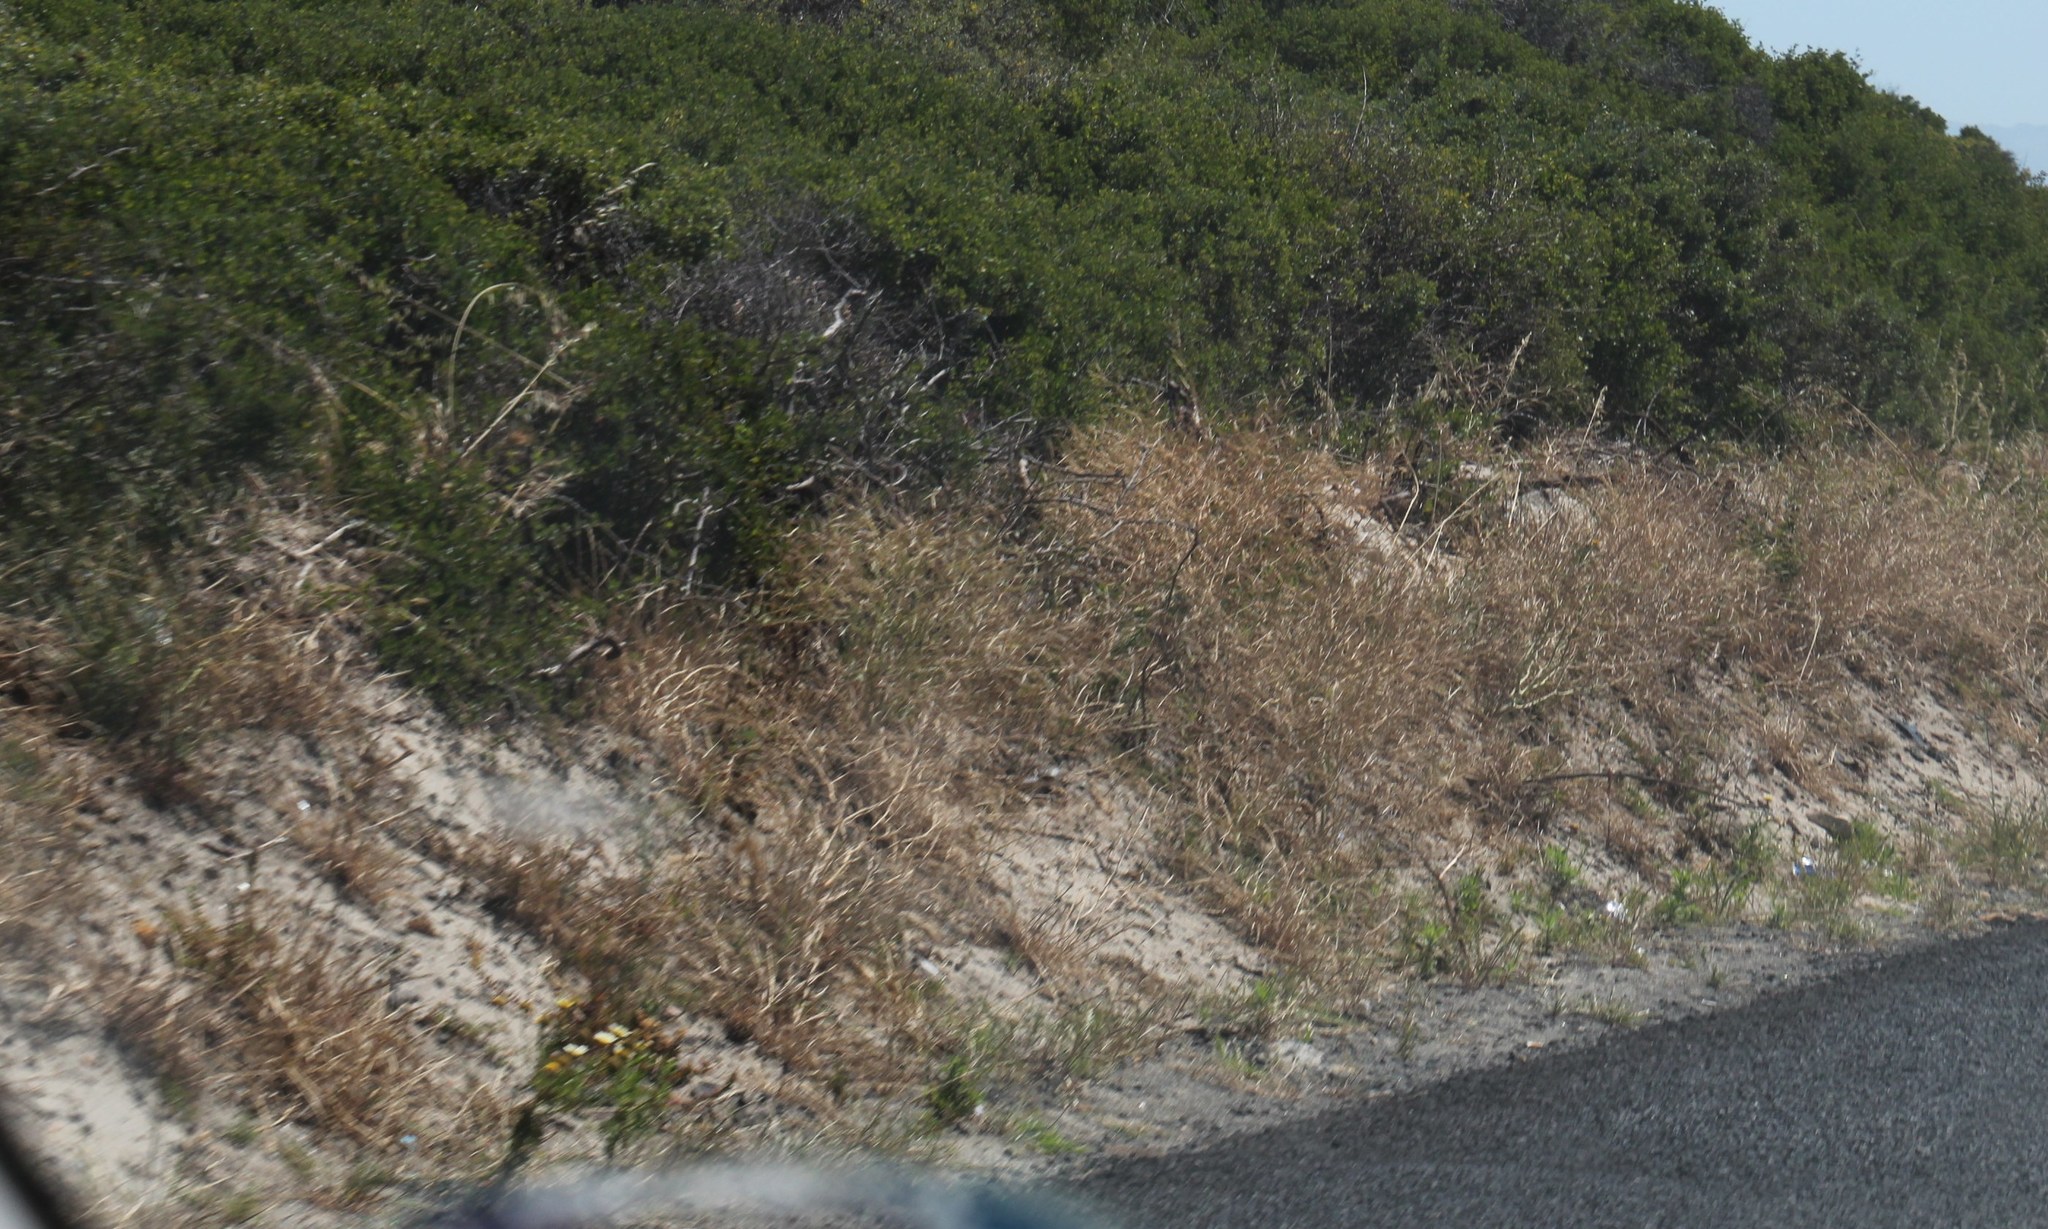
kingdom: Plantae
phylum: Tracheophyta
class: Magnoliopsida
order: Asterales
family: Asteraceae
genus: Glebionis
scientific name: Glebionis coronaria
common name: Crowndaisy
